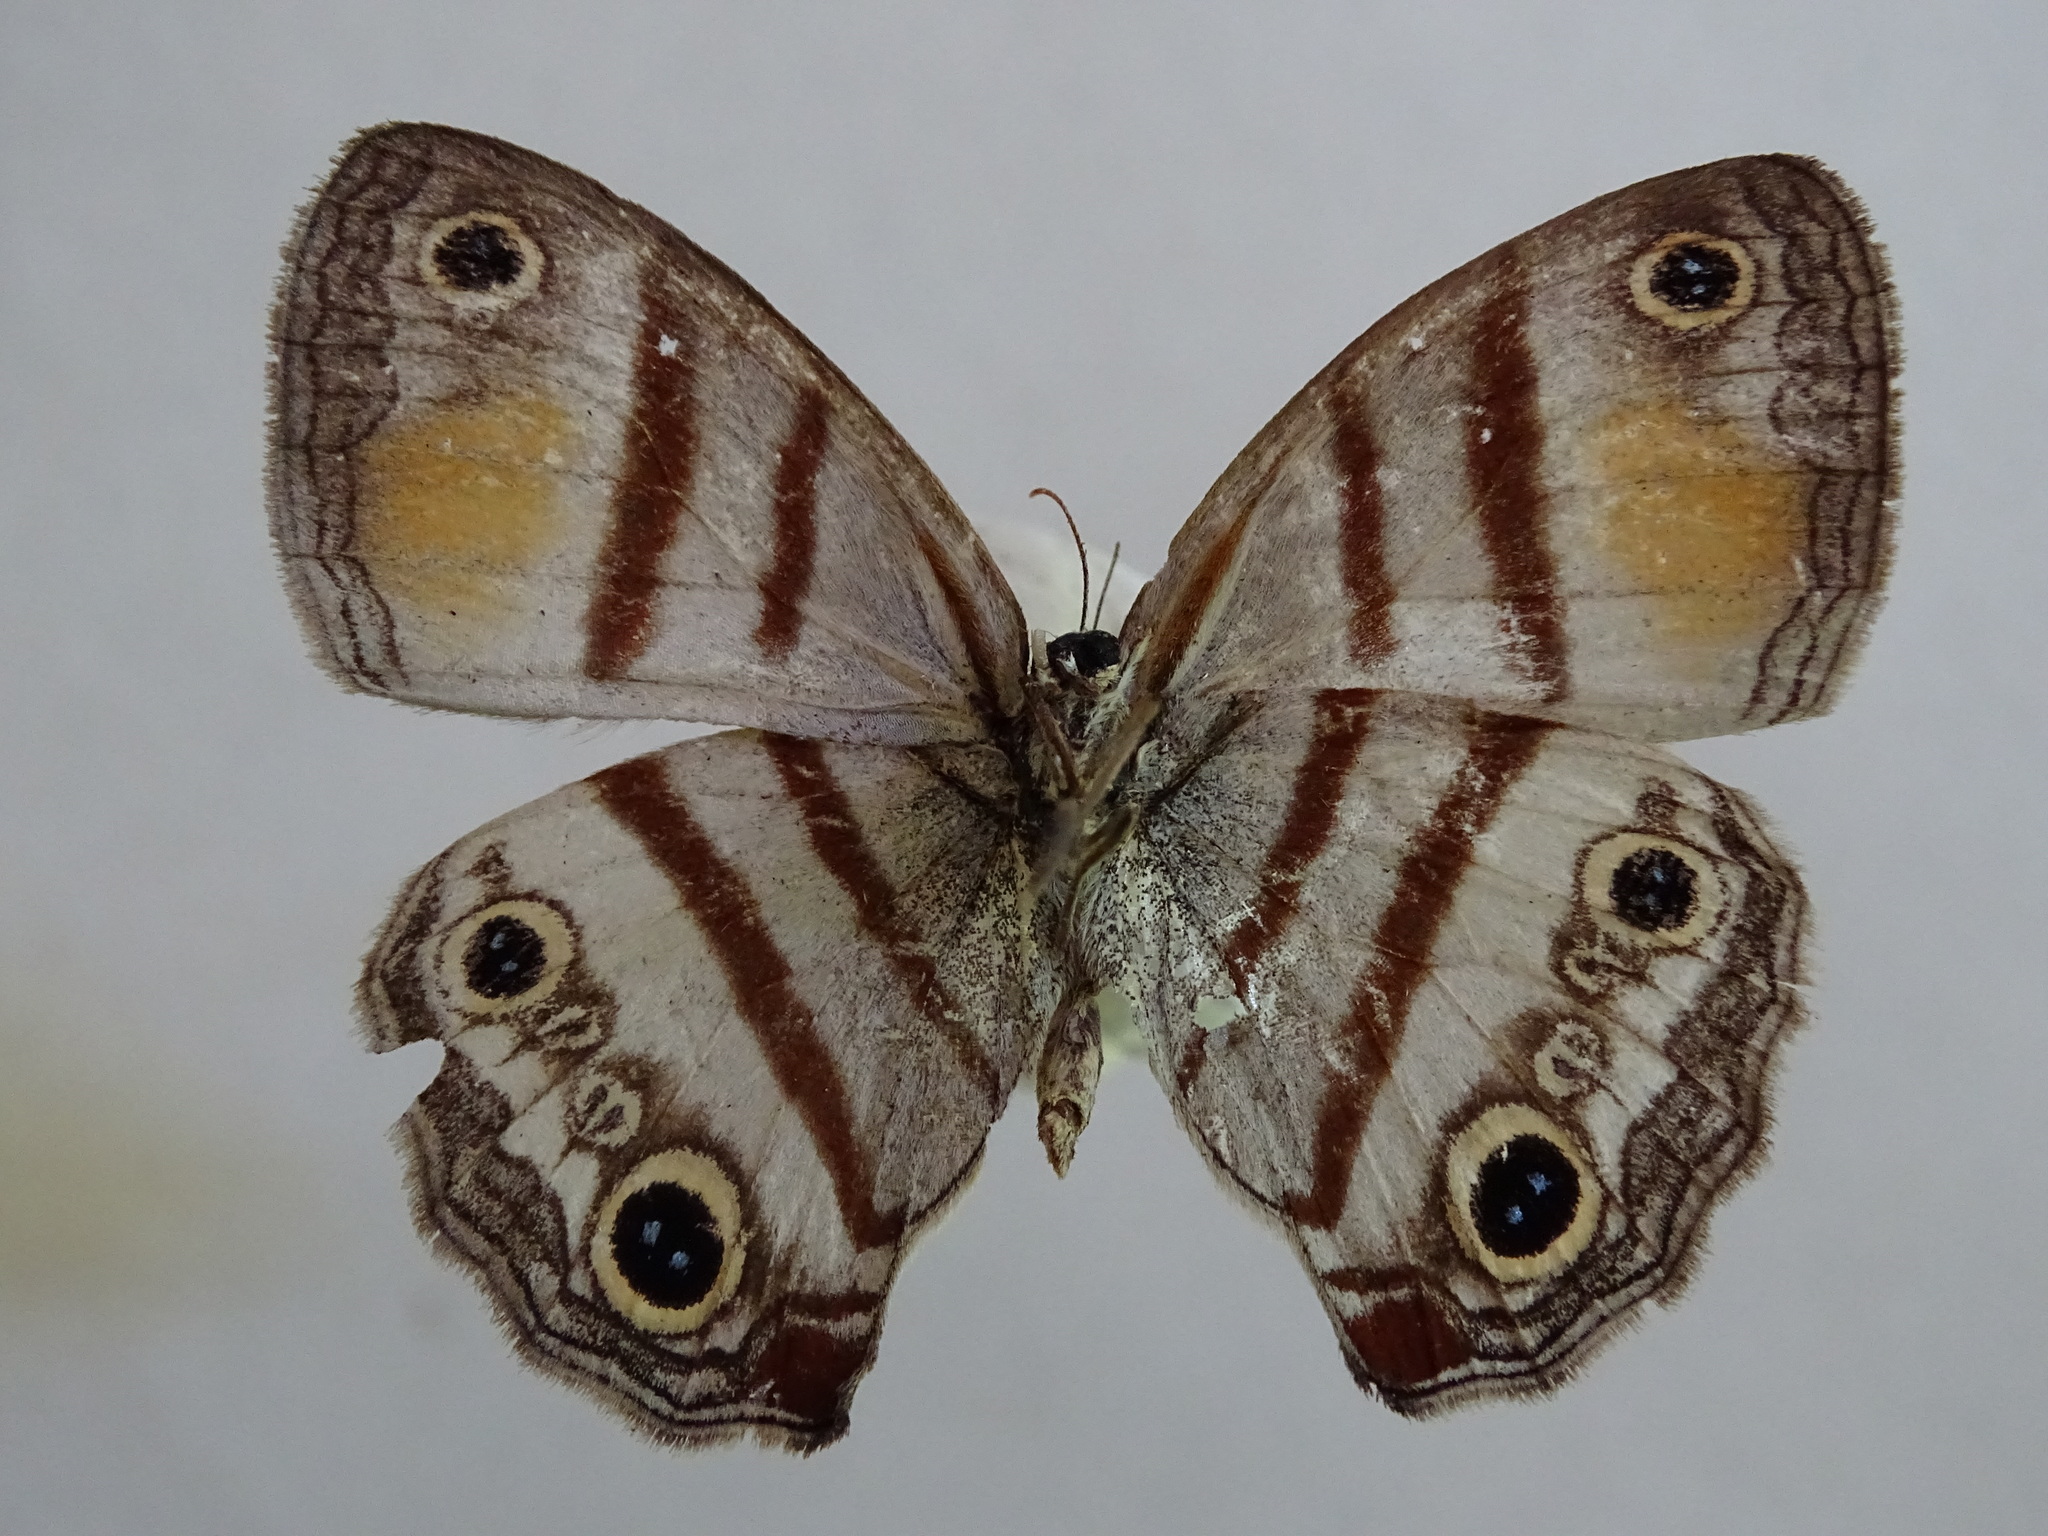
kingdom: Animalia
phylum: Arthropoda
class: Insecta
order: Lepidoptera
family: Nymphalidae
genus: Argyreuptychia
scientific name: Argyreuptychia labe
